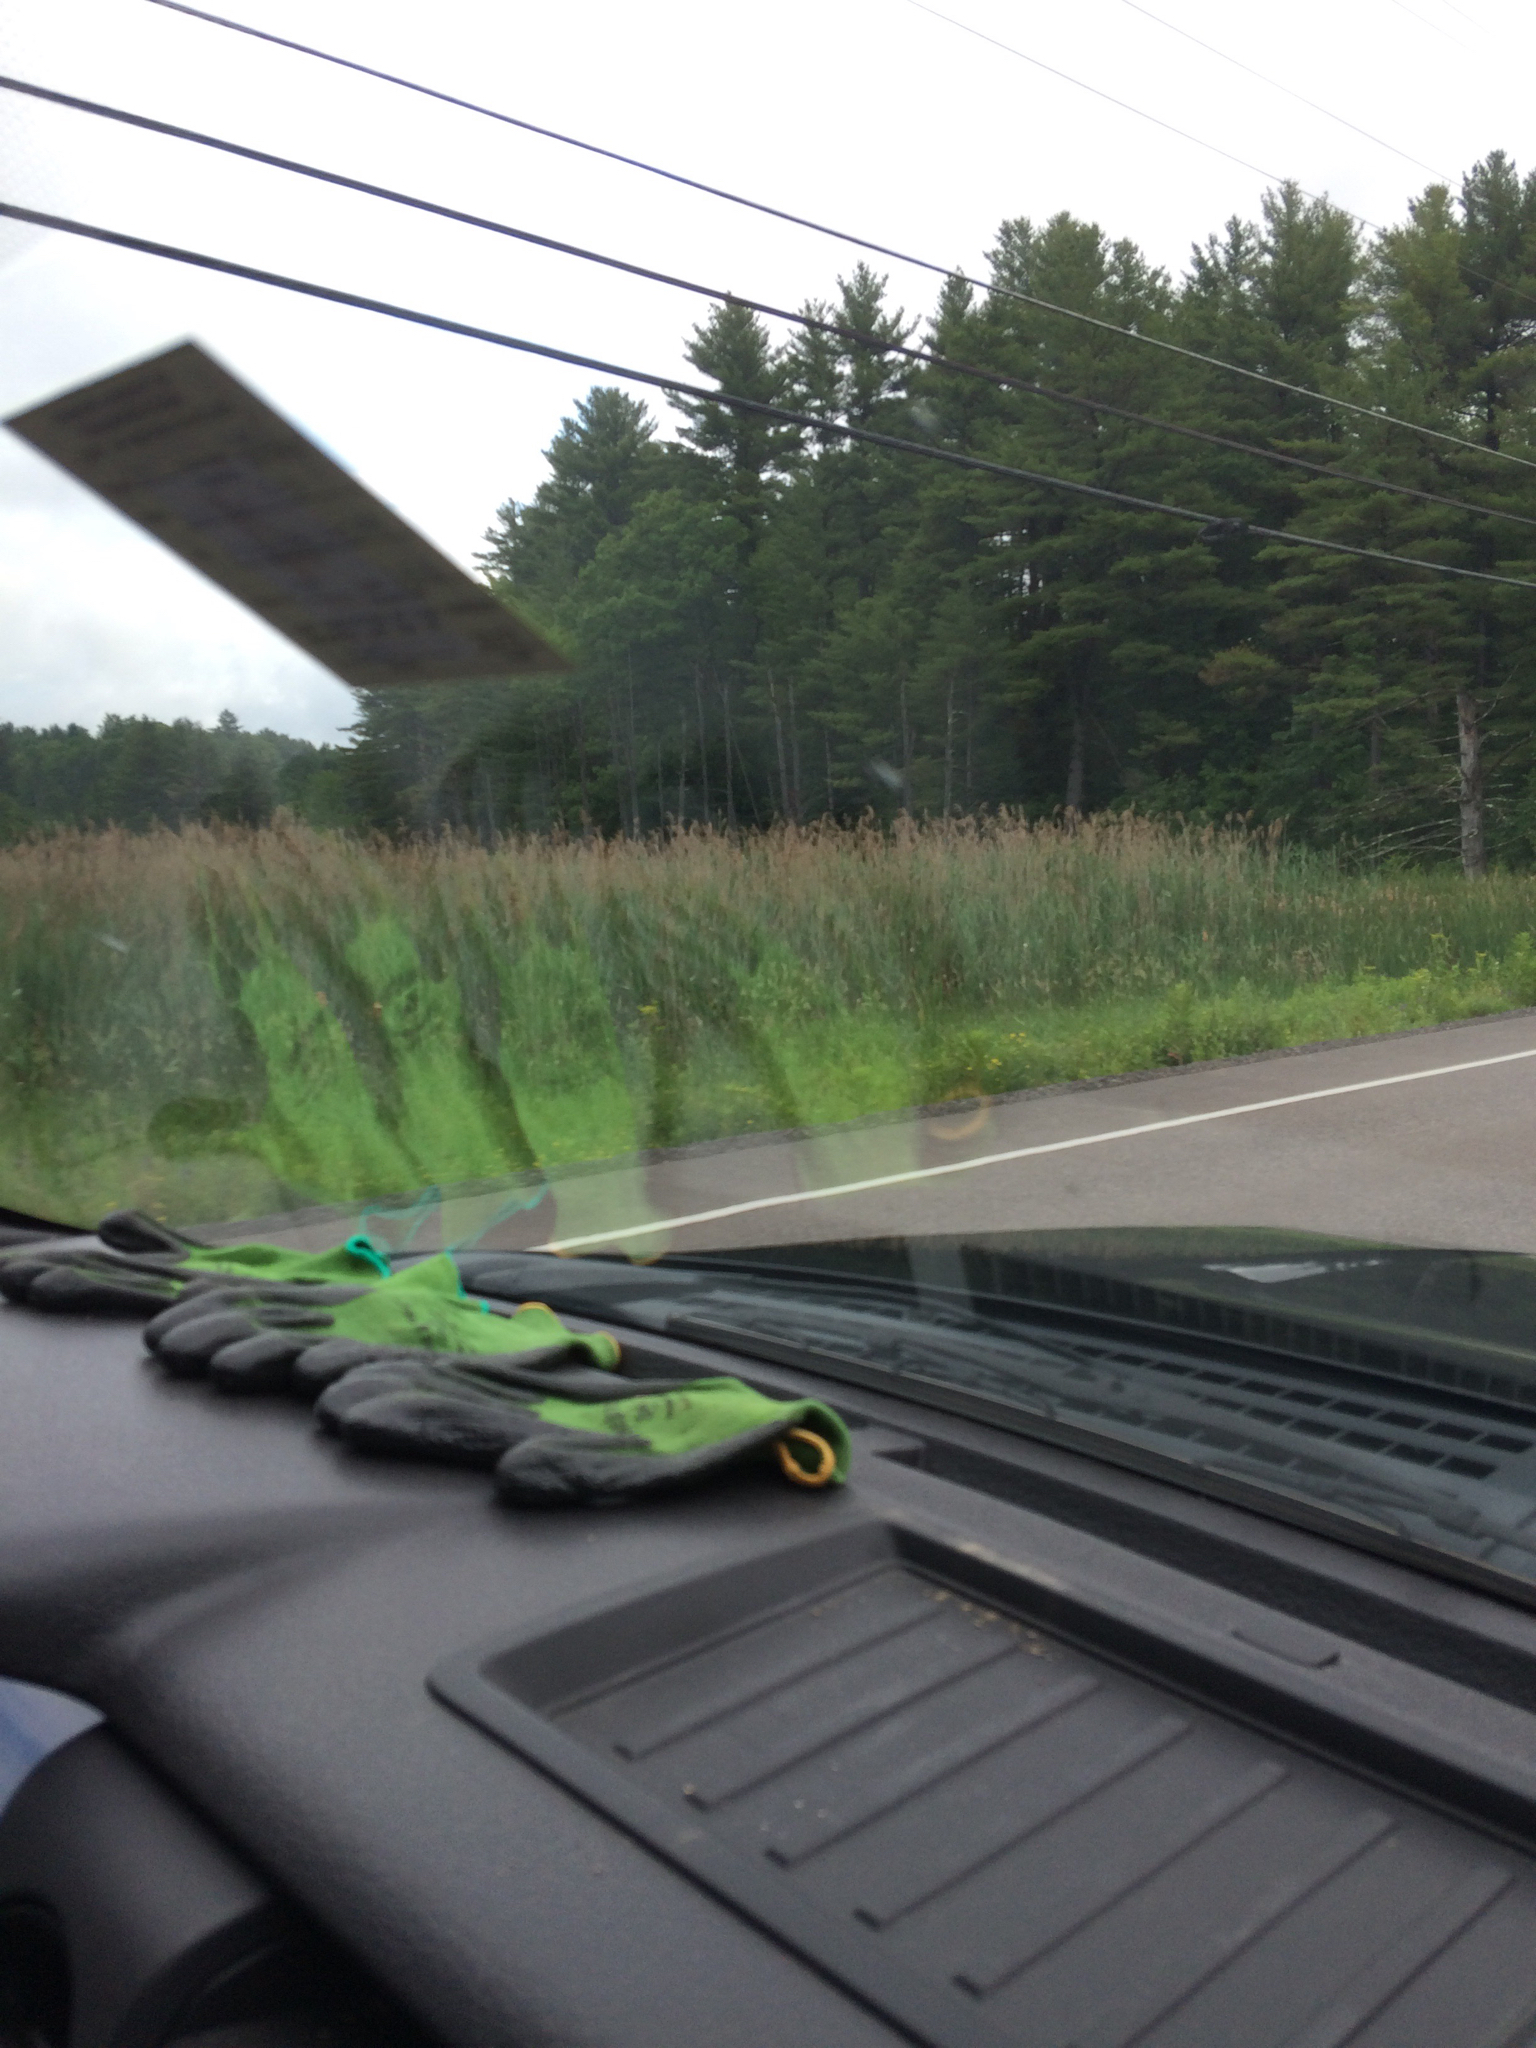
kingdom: Plantae
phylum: Tracheophyta
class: Liliopsida
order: Poales
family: Poaceae
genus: Phragmites
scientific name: Phragmites australis
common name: Common reed
